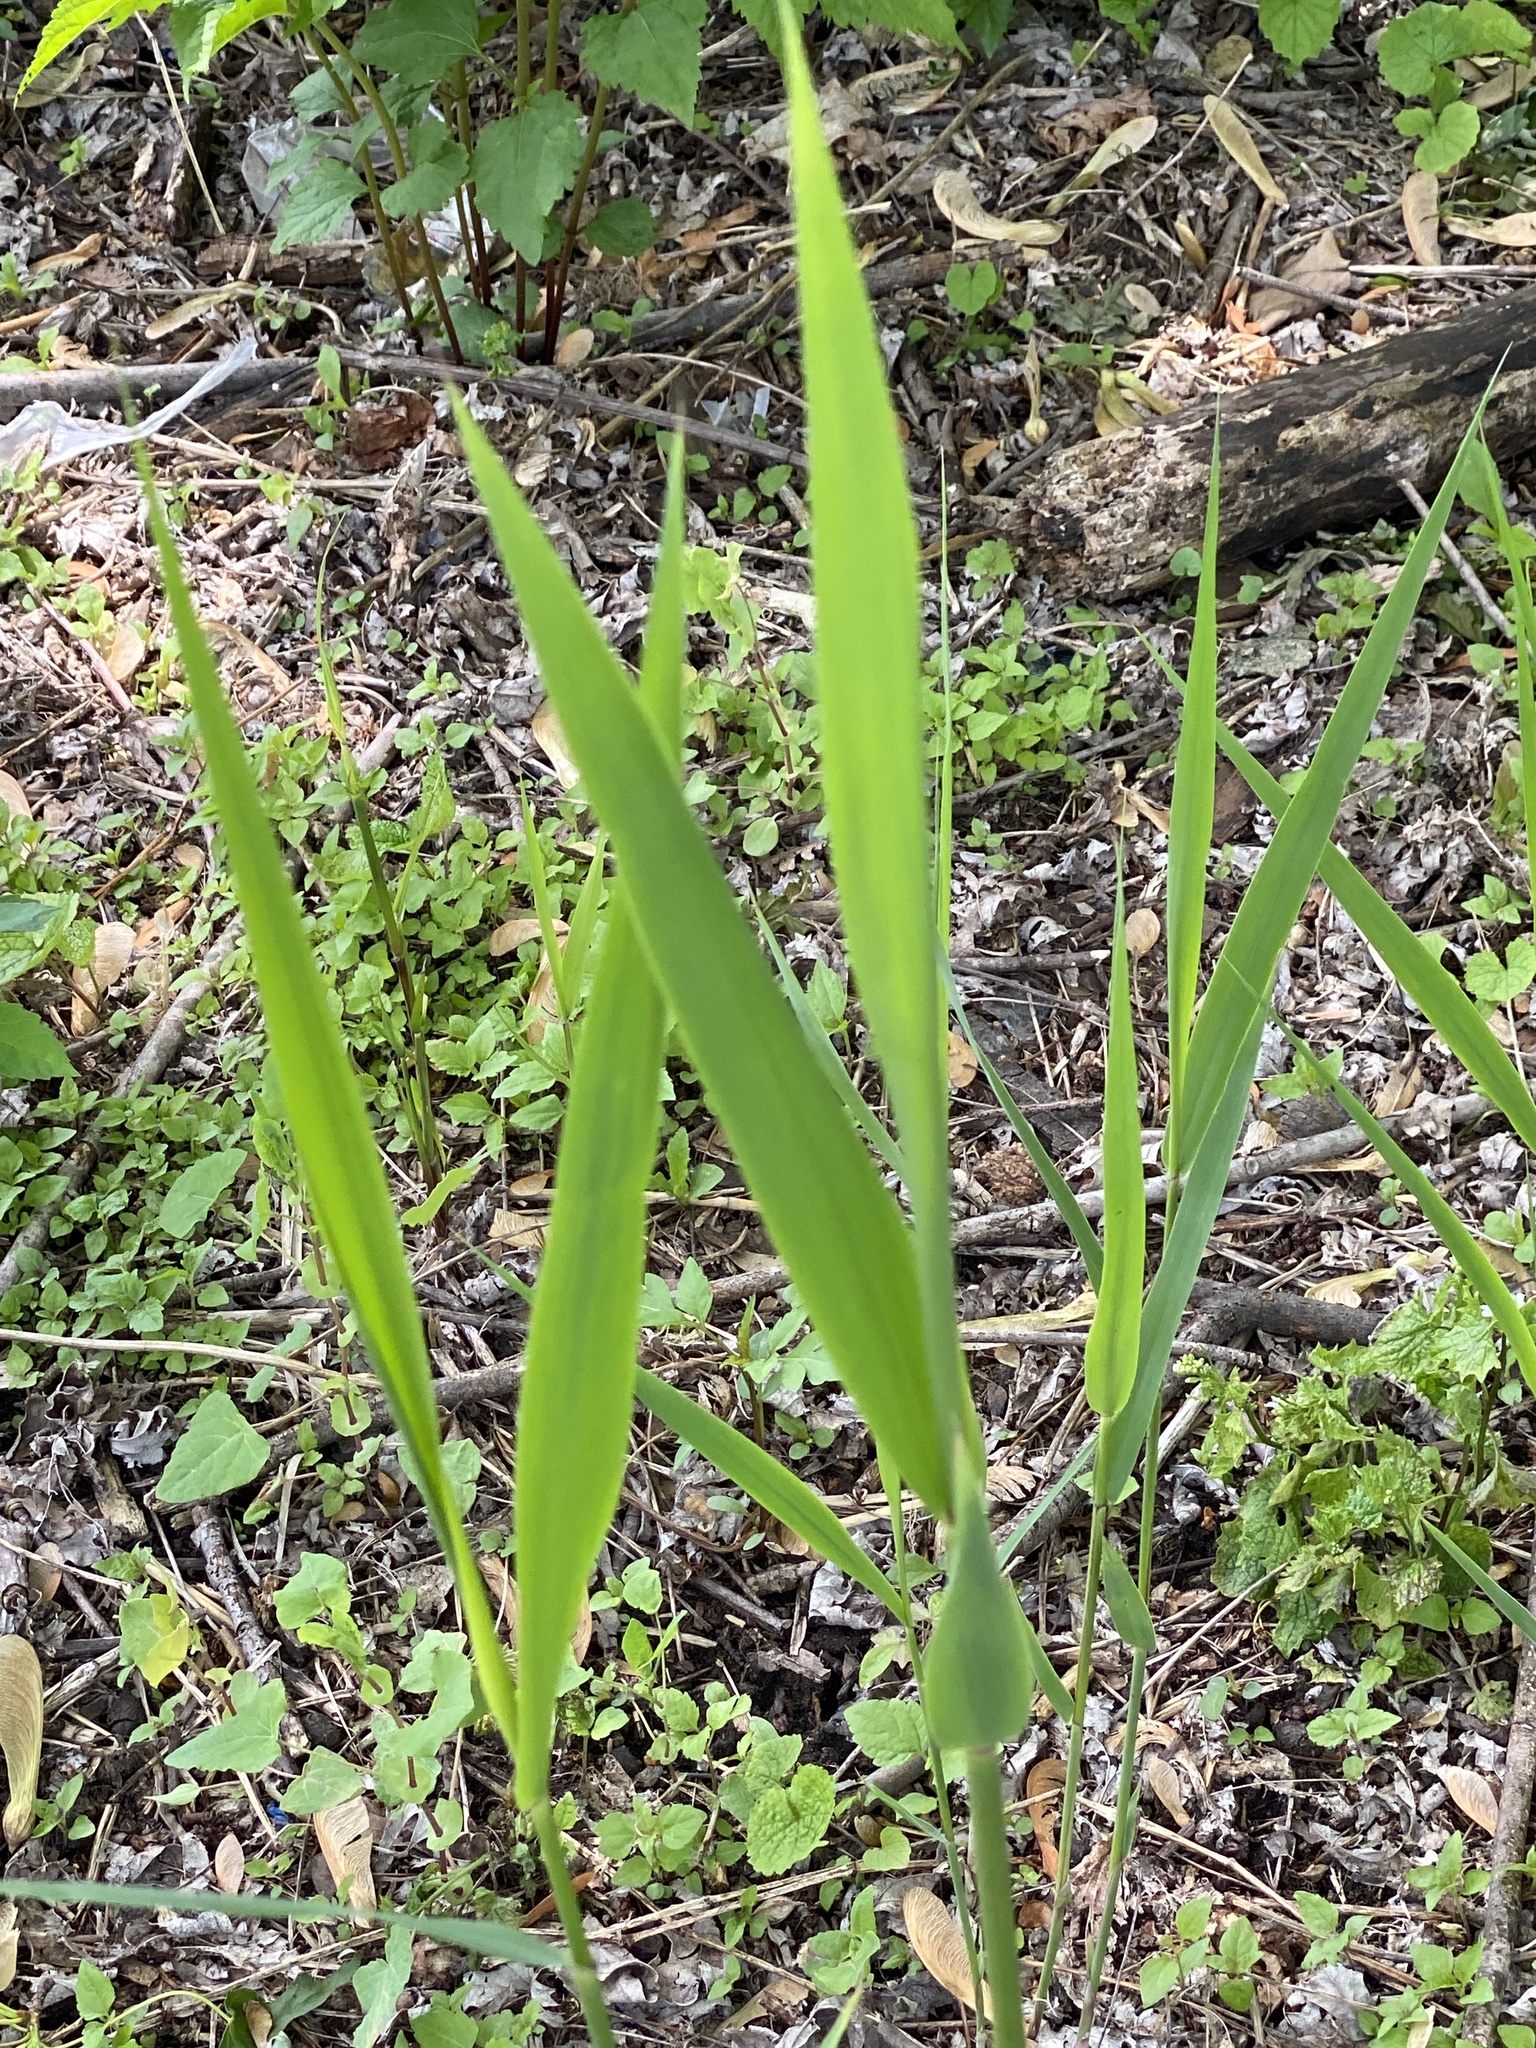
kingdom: Plantae
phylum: Tracheophyta
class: Liliopsida
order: Poales
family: Poaceae
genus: Phragmites
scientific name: Phragmites australis
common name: Common reed
